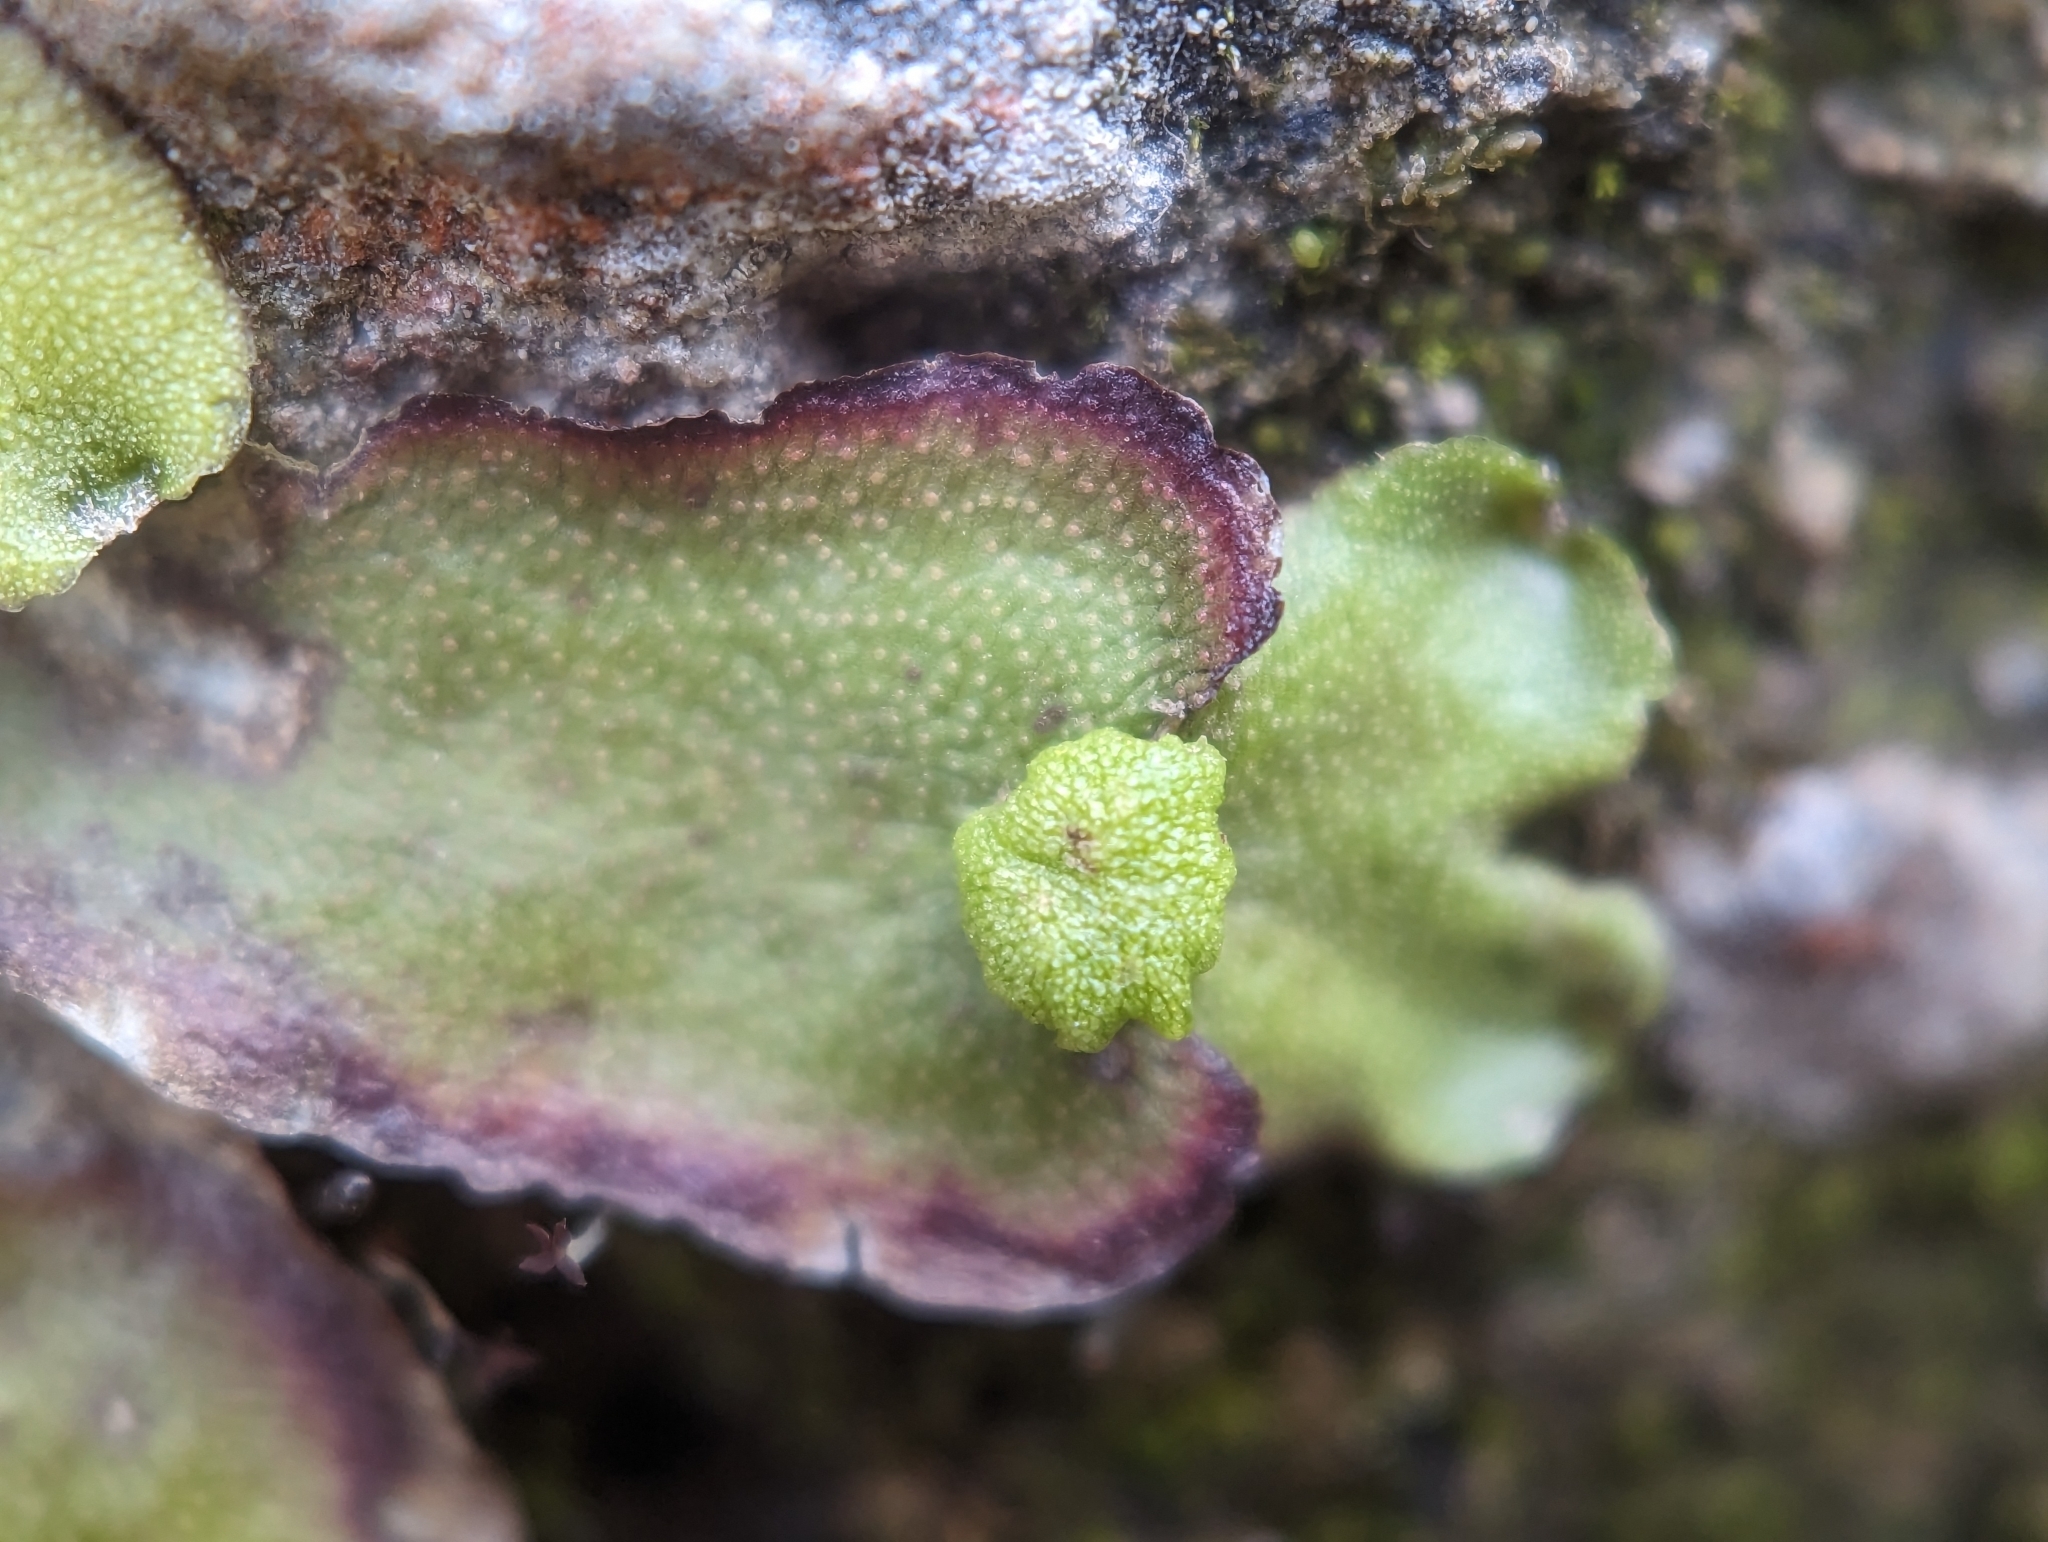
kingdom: Plantae
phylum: Marchantiophyta
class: Marchantiopsida
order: Marchantiales
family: Marchantiaceae
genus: Marchantia
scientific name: Marchantia quadrata
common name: Narrow mushroom-headed liverwort
